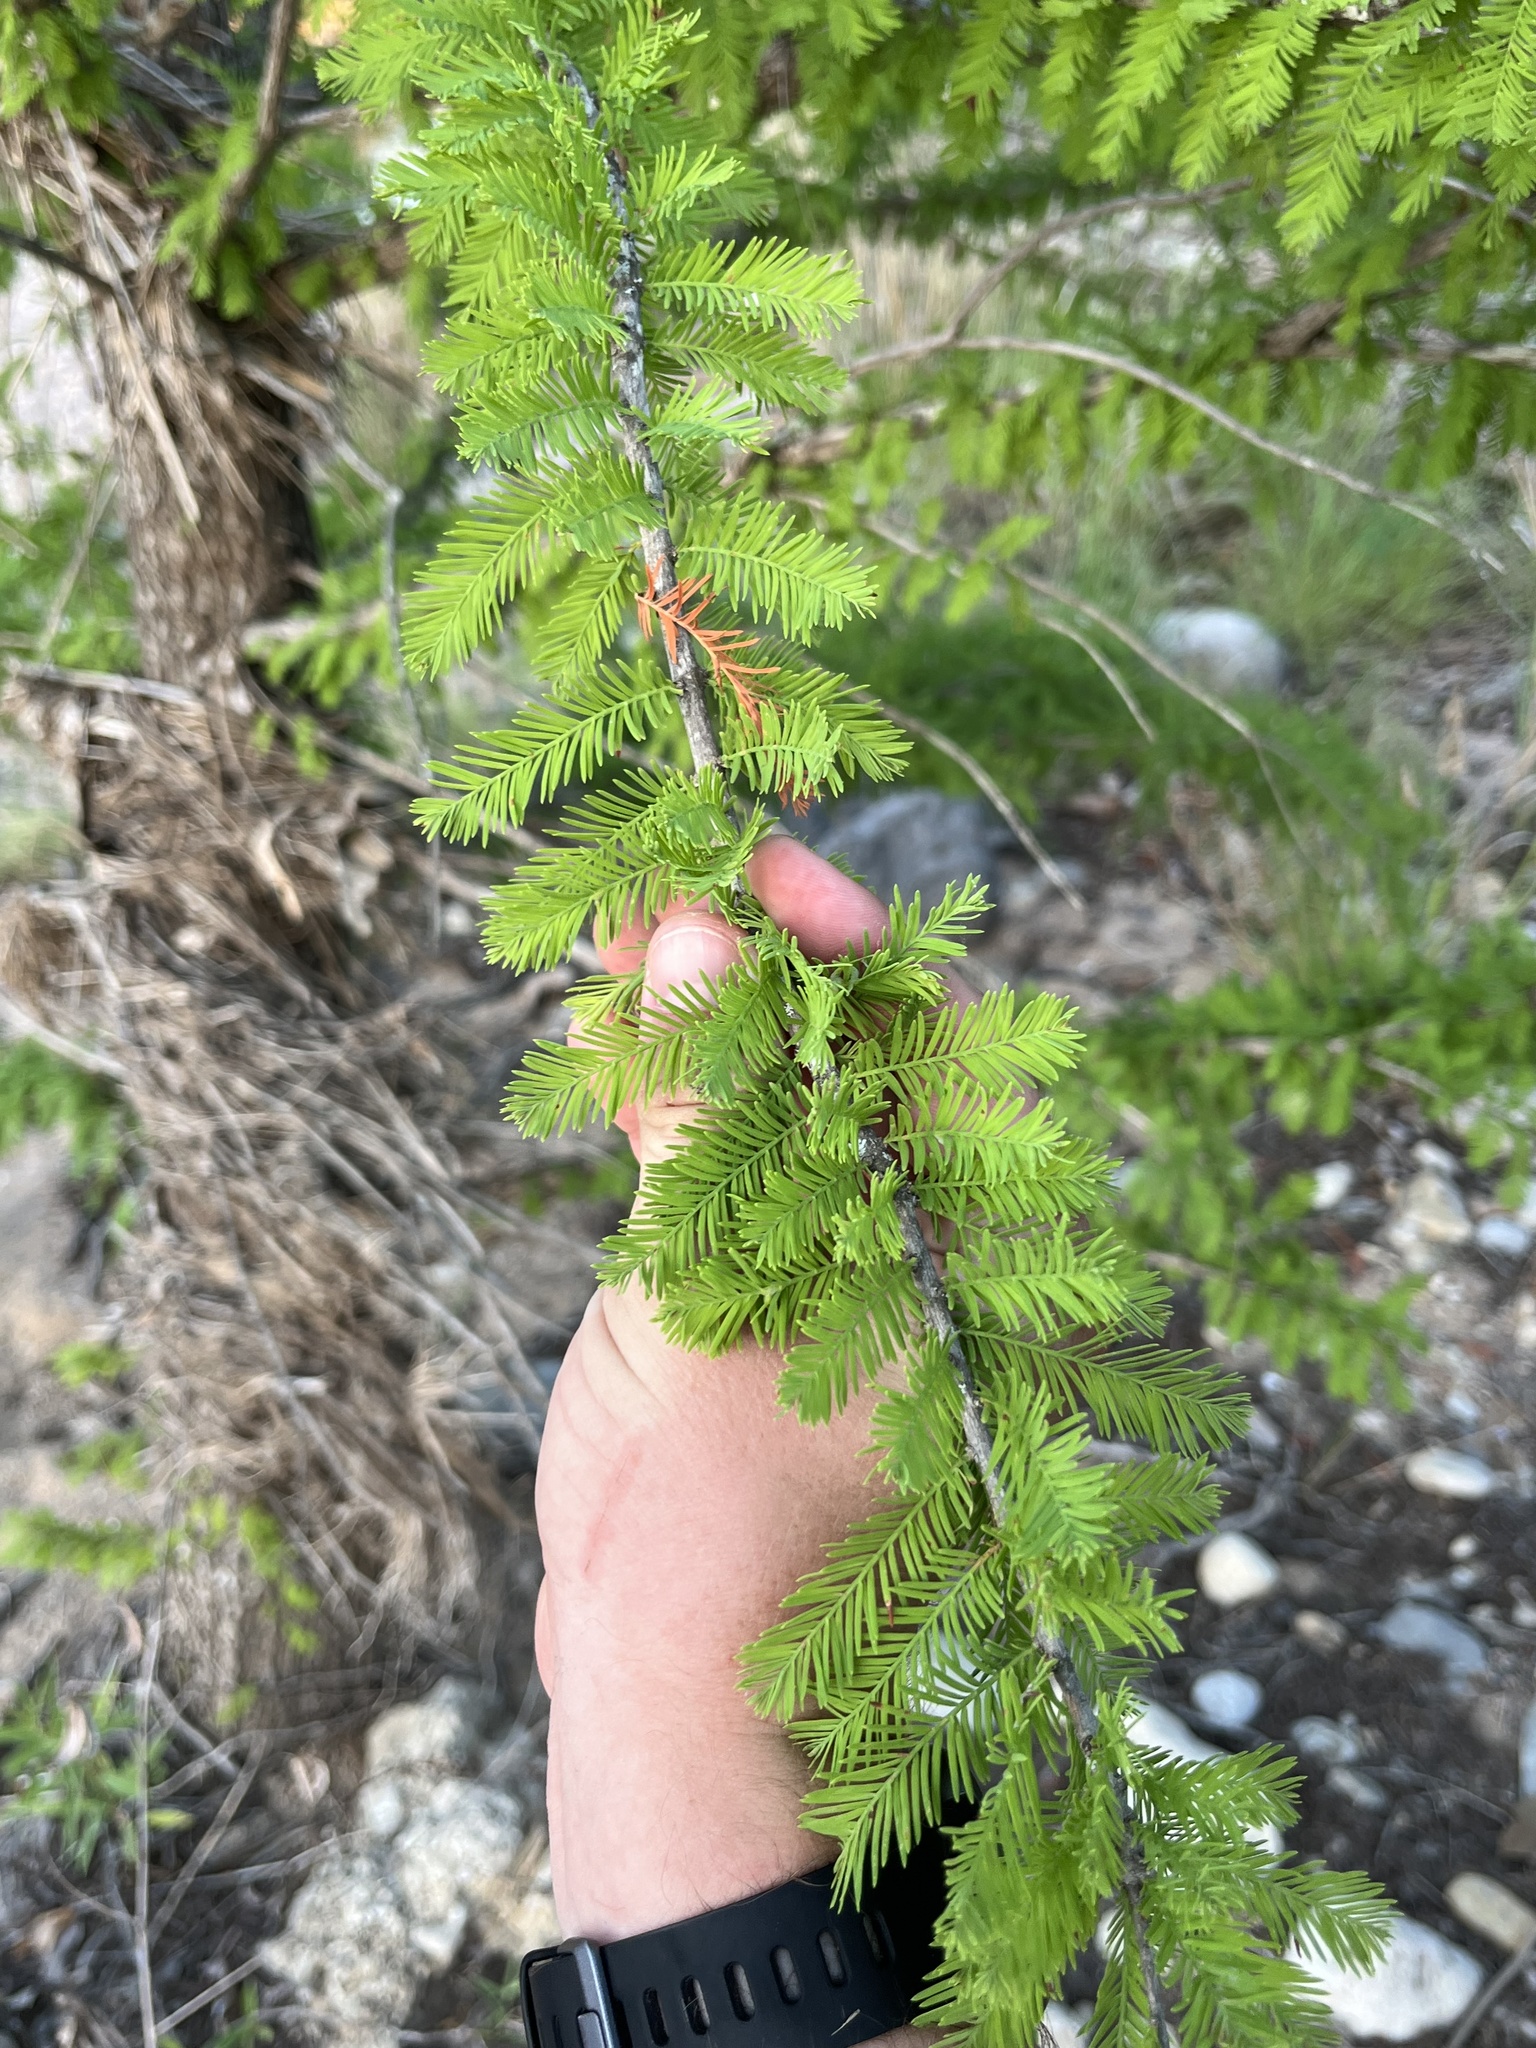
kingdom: Plantae
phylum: Tracheophyta
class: Pinopsida
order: Pinales
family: Cupressaceae
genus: Taxodium
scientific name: Taxodium distichum
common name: Bald cypress
